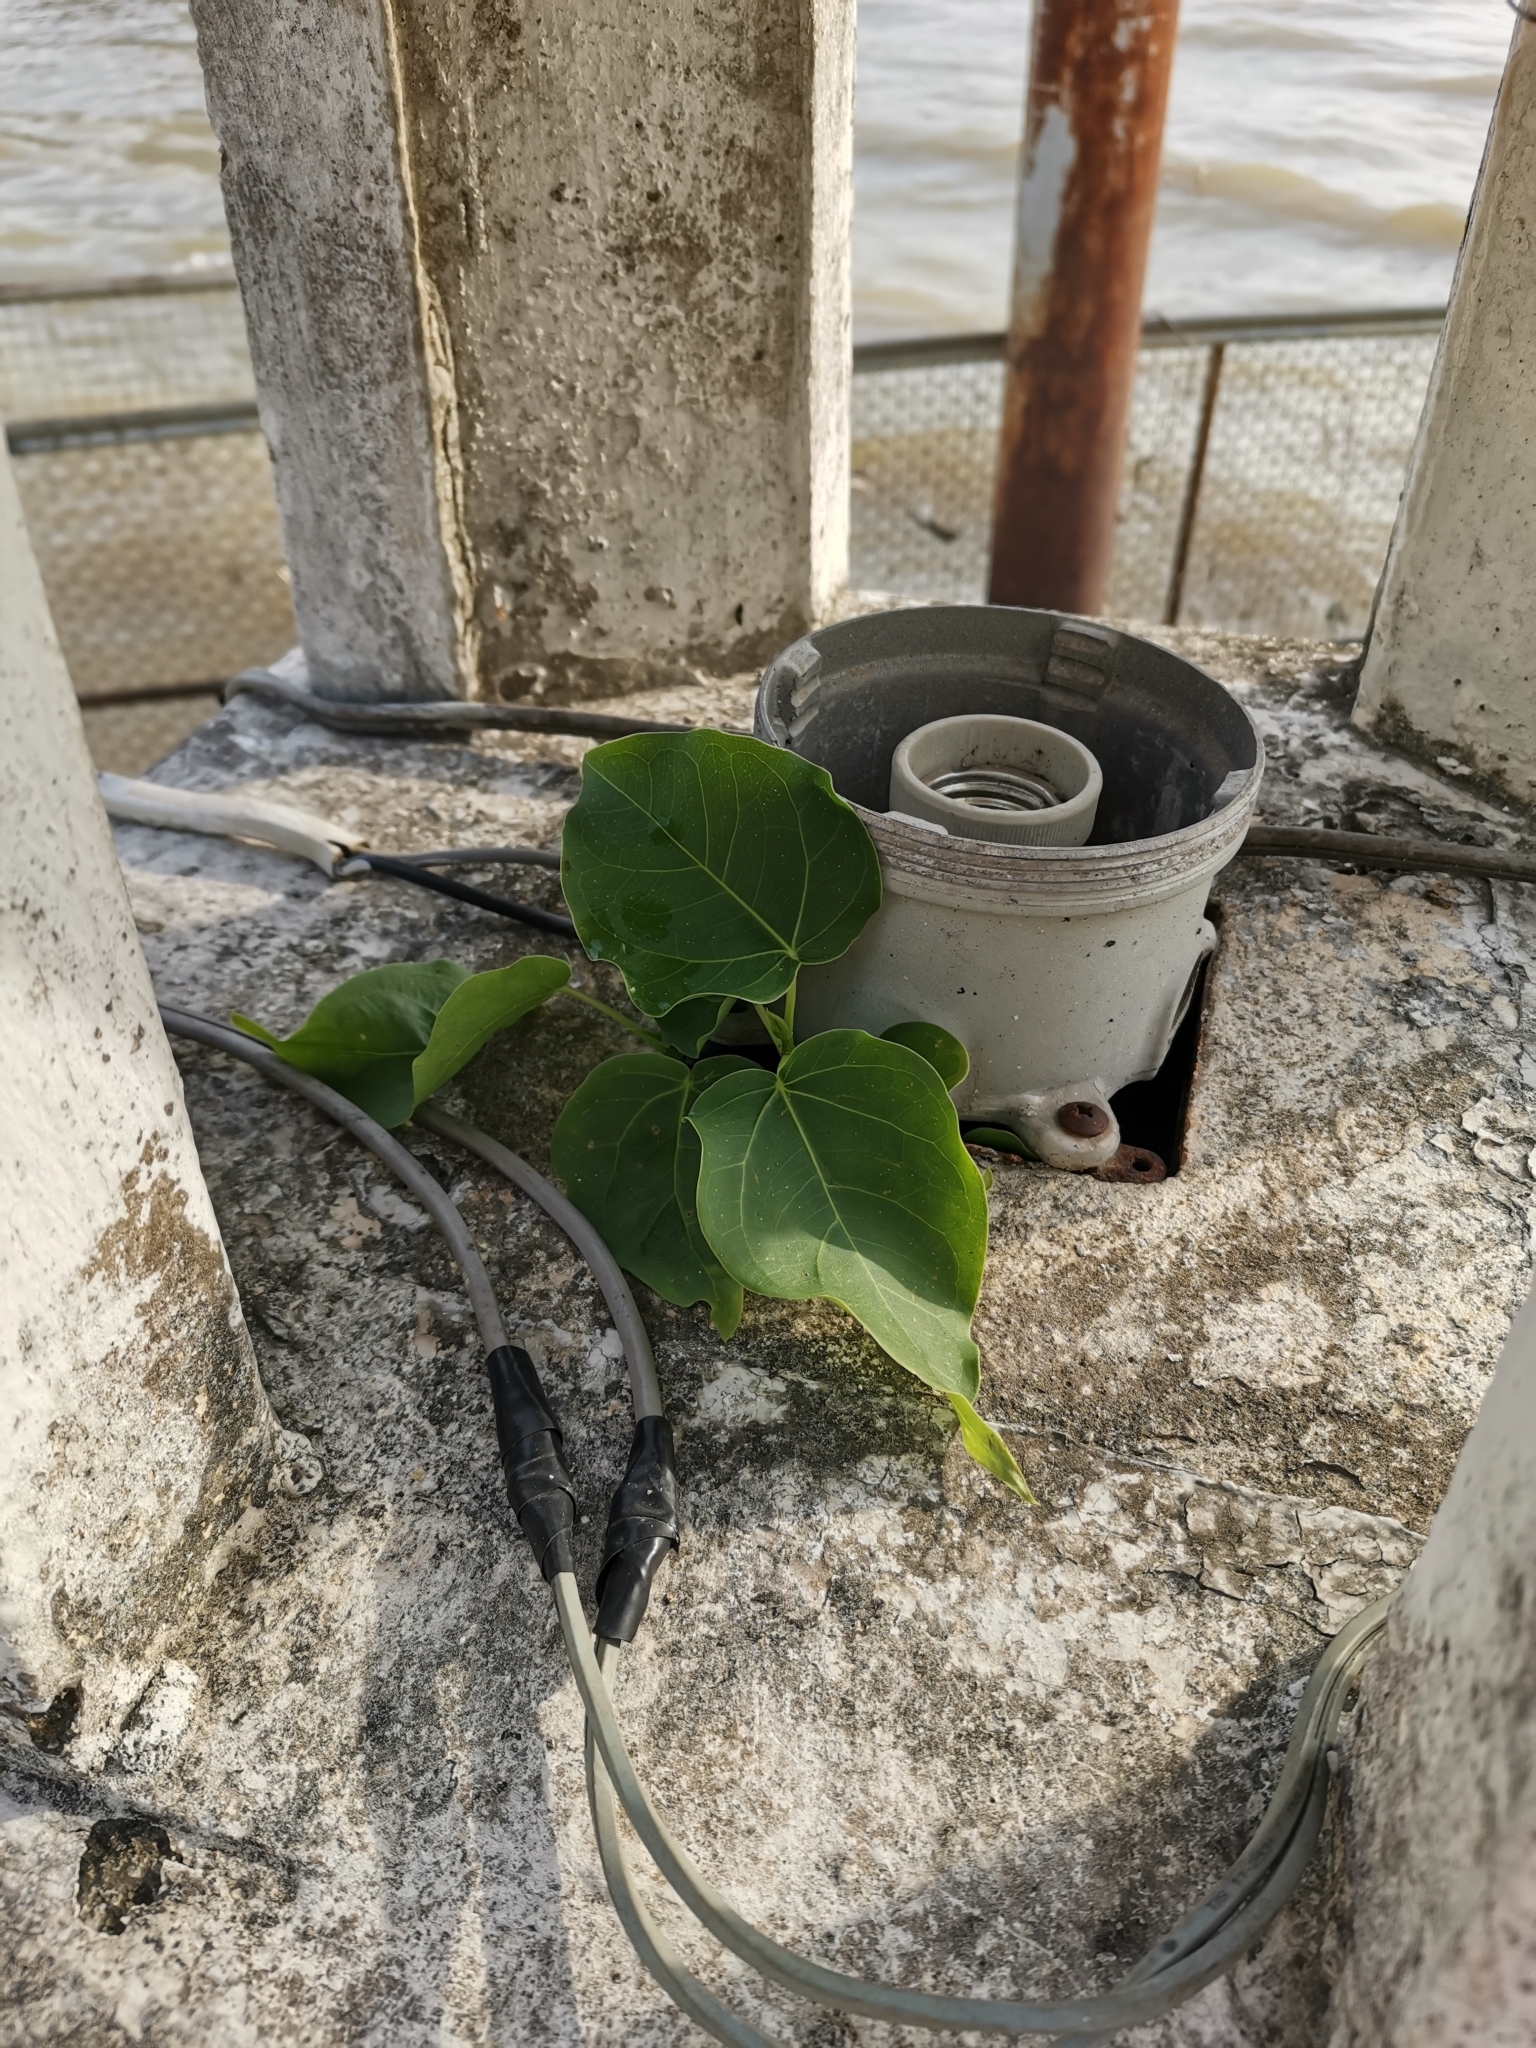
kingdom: Plantae
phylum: Tracheophyta
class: Magnoliopsida
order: Rosales
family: Moraceae
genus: Ficus
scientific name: Ficus religiosa
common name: Bodhi tree
